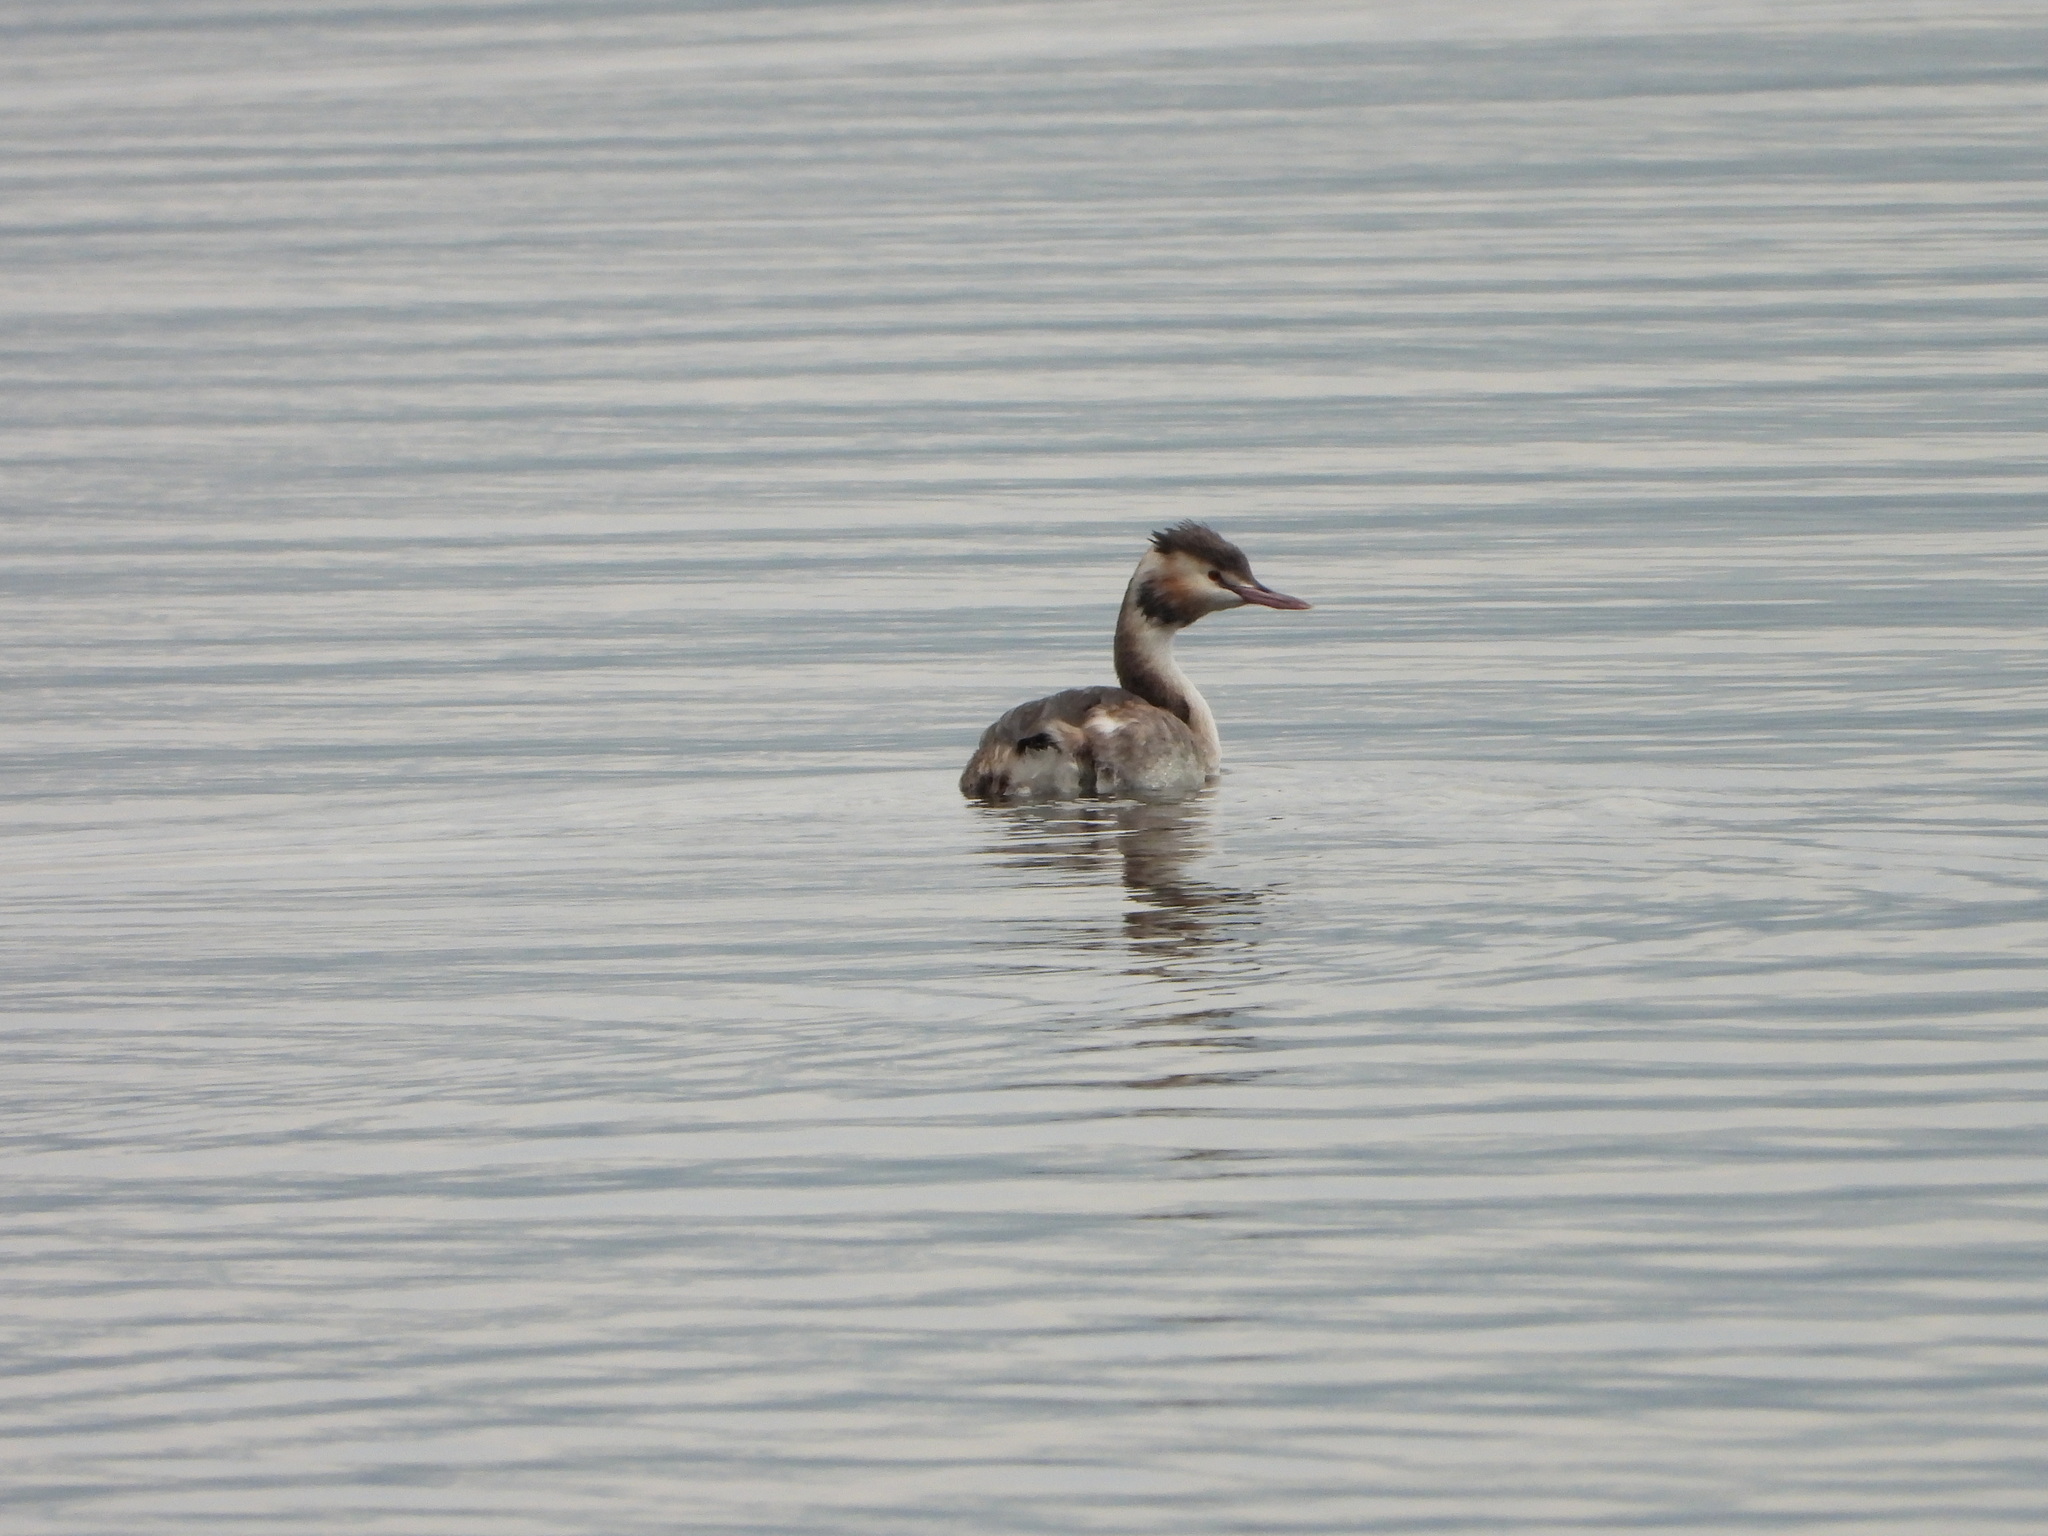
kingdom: Animalia
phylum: Chordata
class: Aves
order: Podicipediformes
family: Podicipedidae
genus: Podiceps
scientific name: Podiceps cristatus
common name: Great crested grebe
